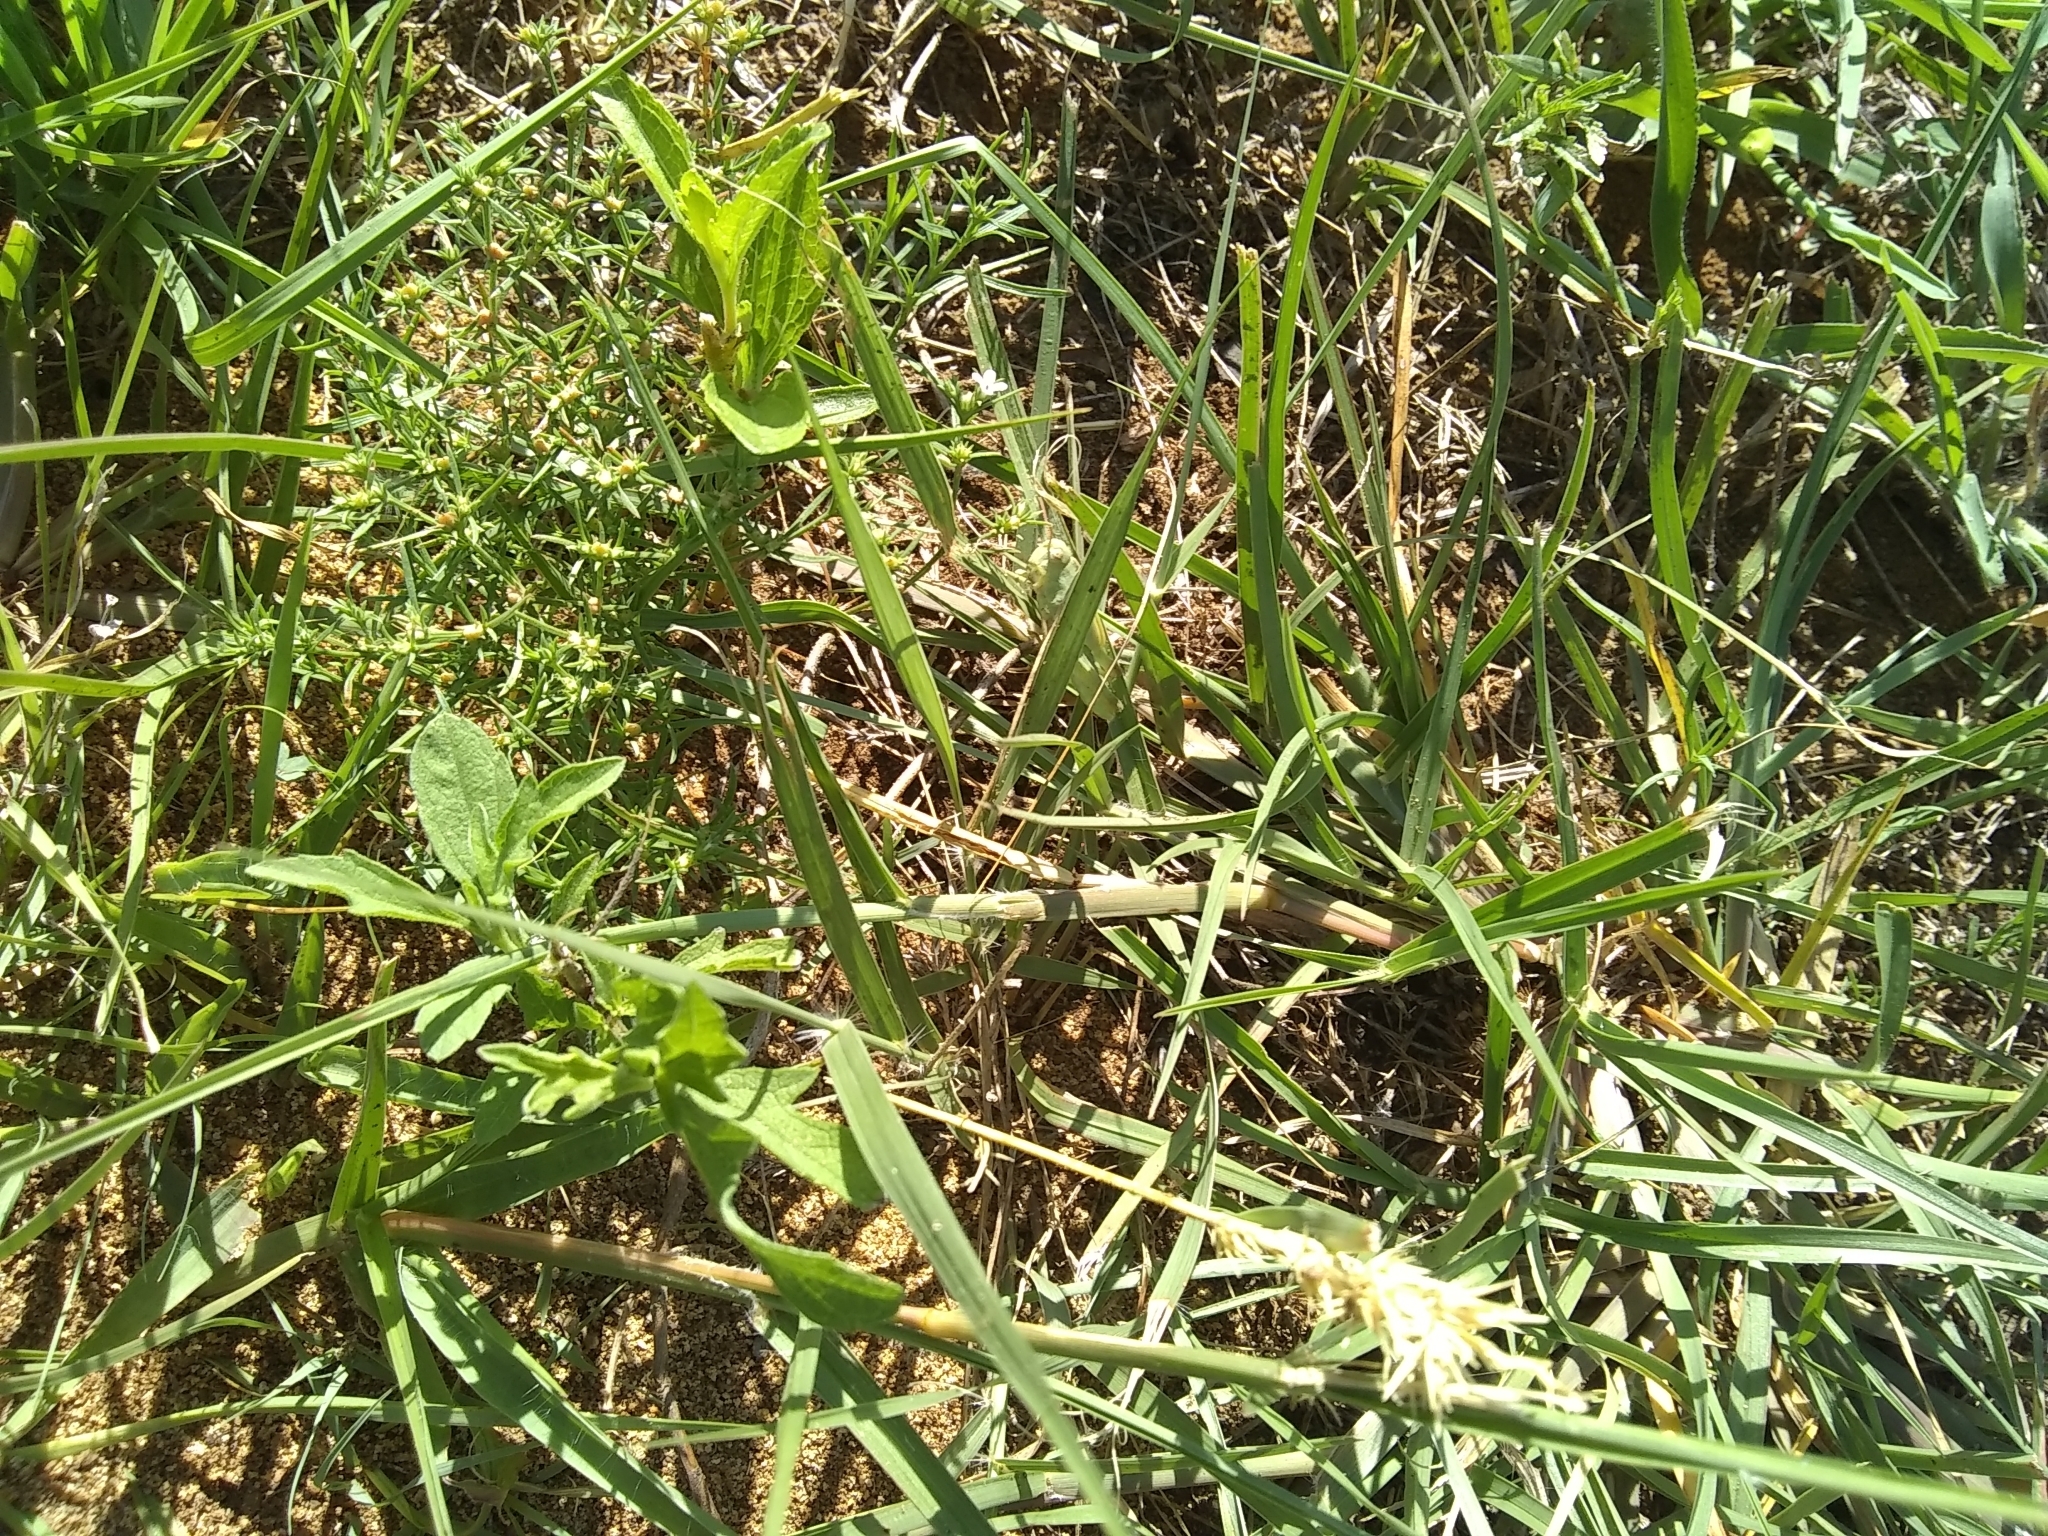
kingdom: Plantae
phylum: Tracheophyta
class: Liliopsida
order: Poales
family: Poaceae
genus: Cenchrus
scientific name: Cenchrus spinifex
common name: Coast sandbur
